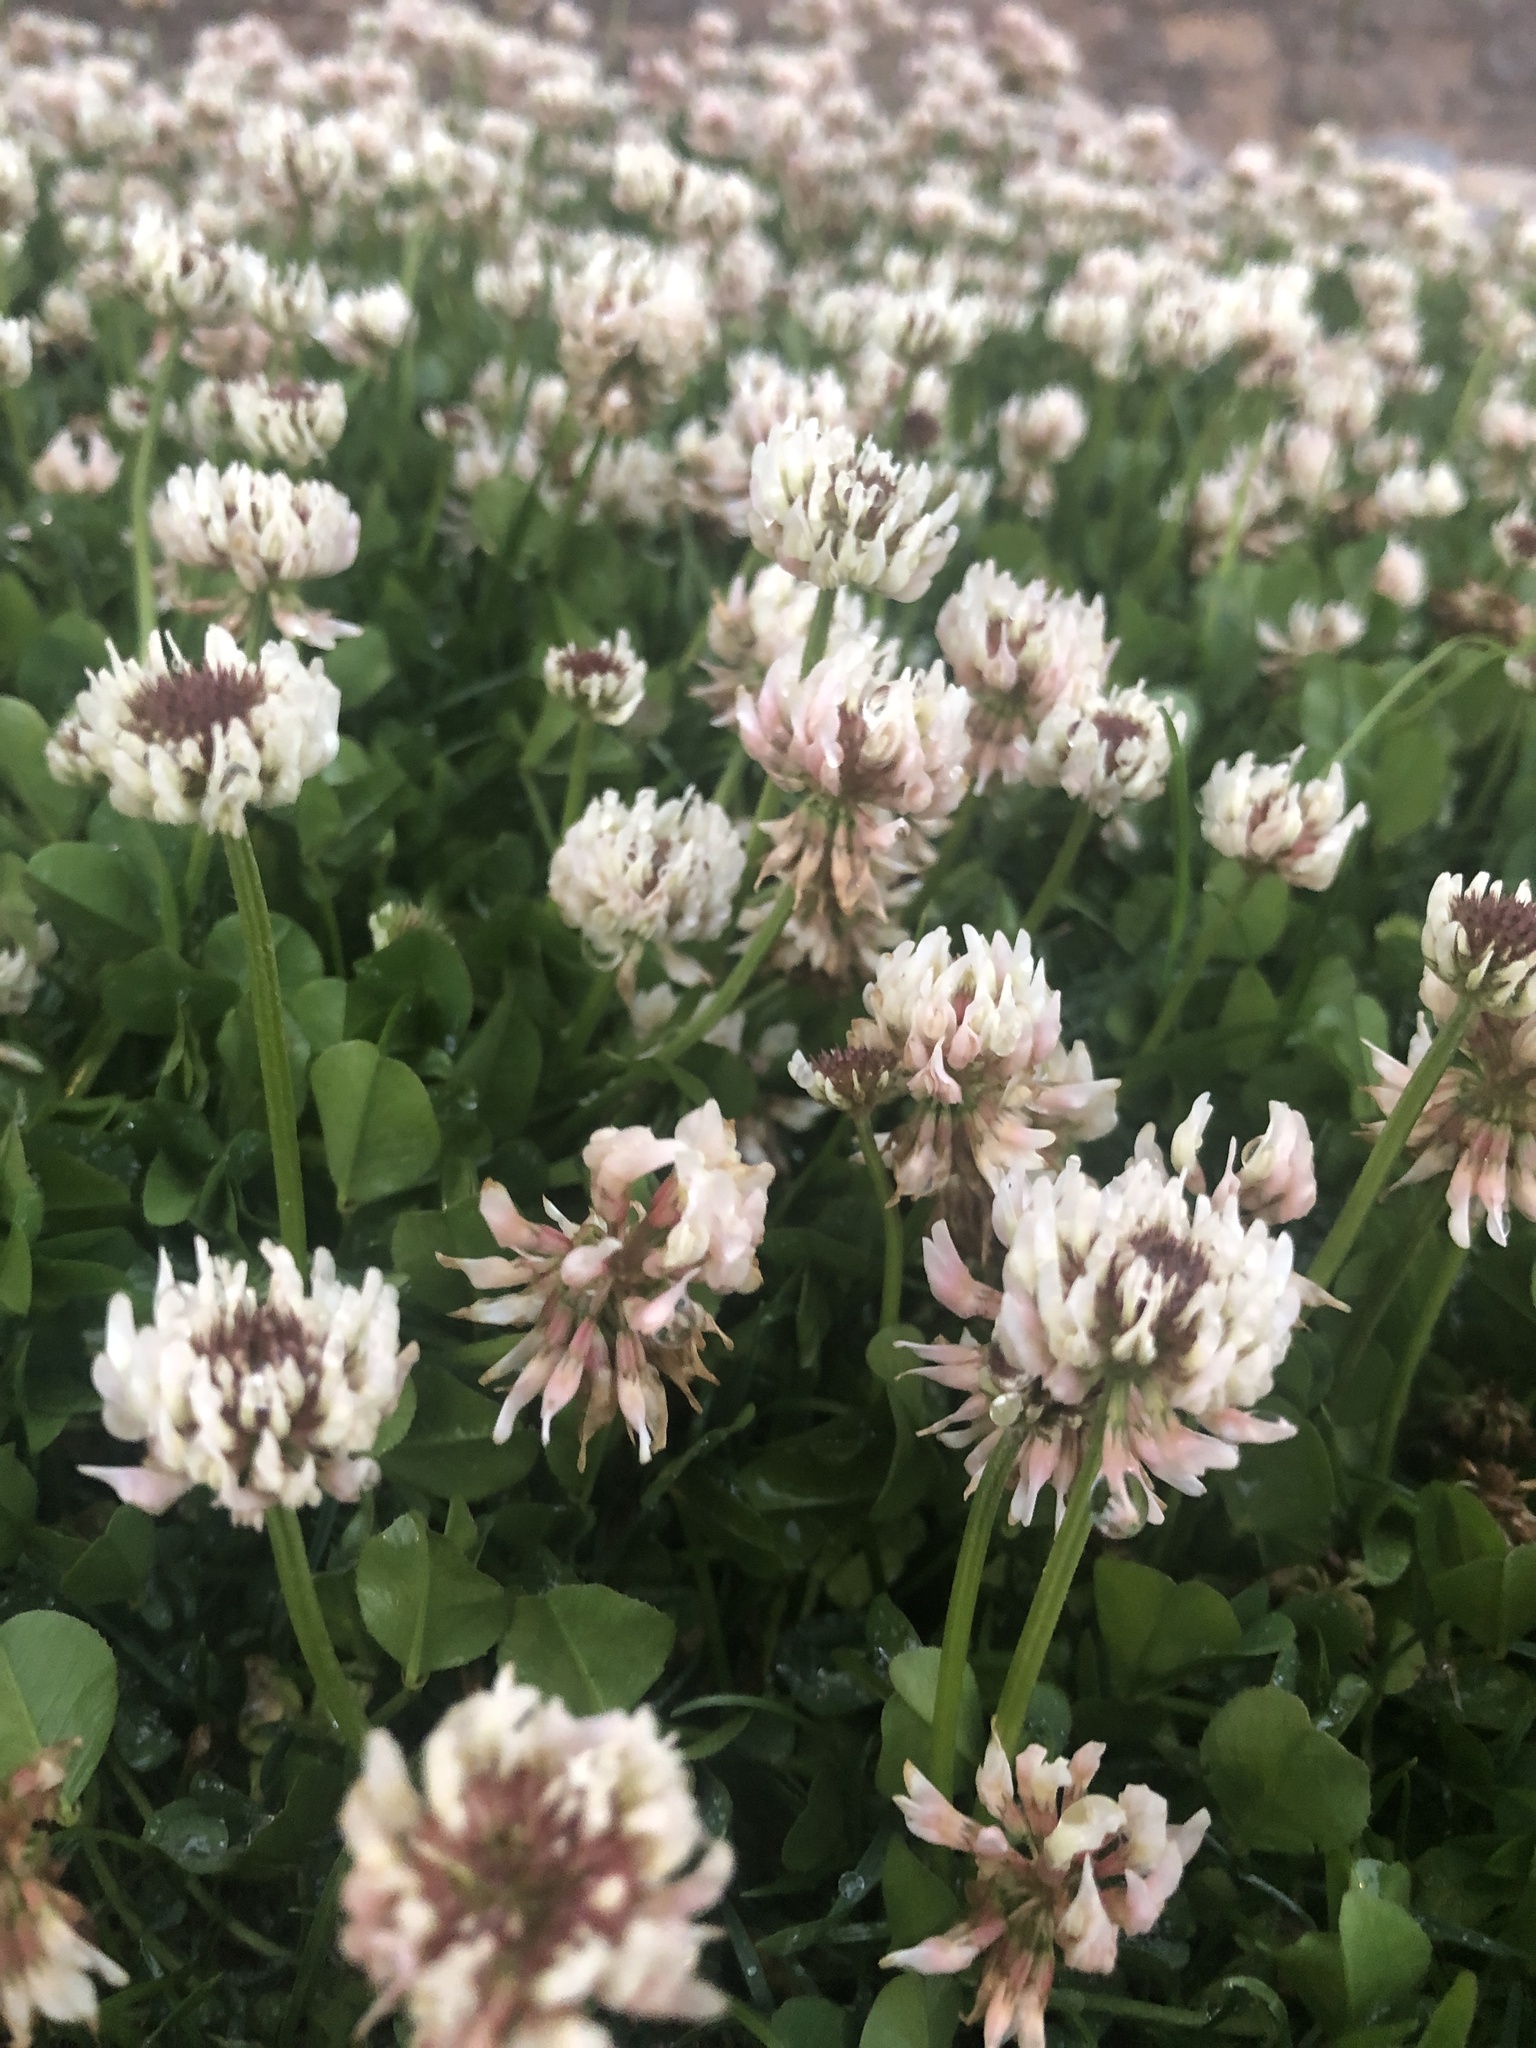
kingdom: Plantae
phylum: Tracheophyta
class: Magnoliopsida
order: Fabales
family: Fabaceae
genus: Trifolium
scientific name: Trifolium repens
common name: White clover
